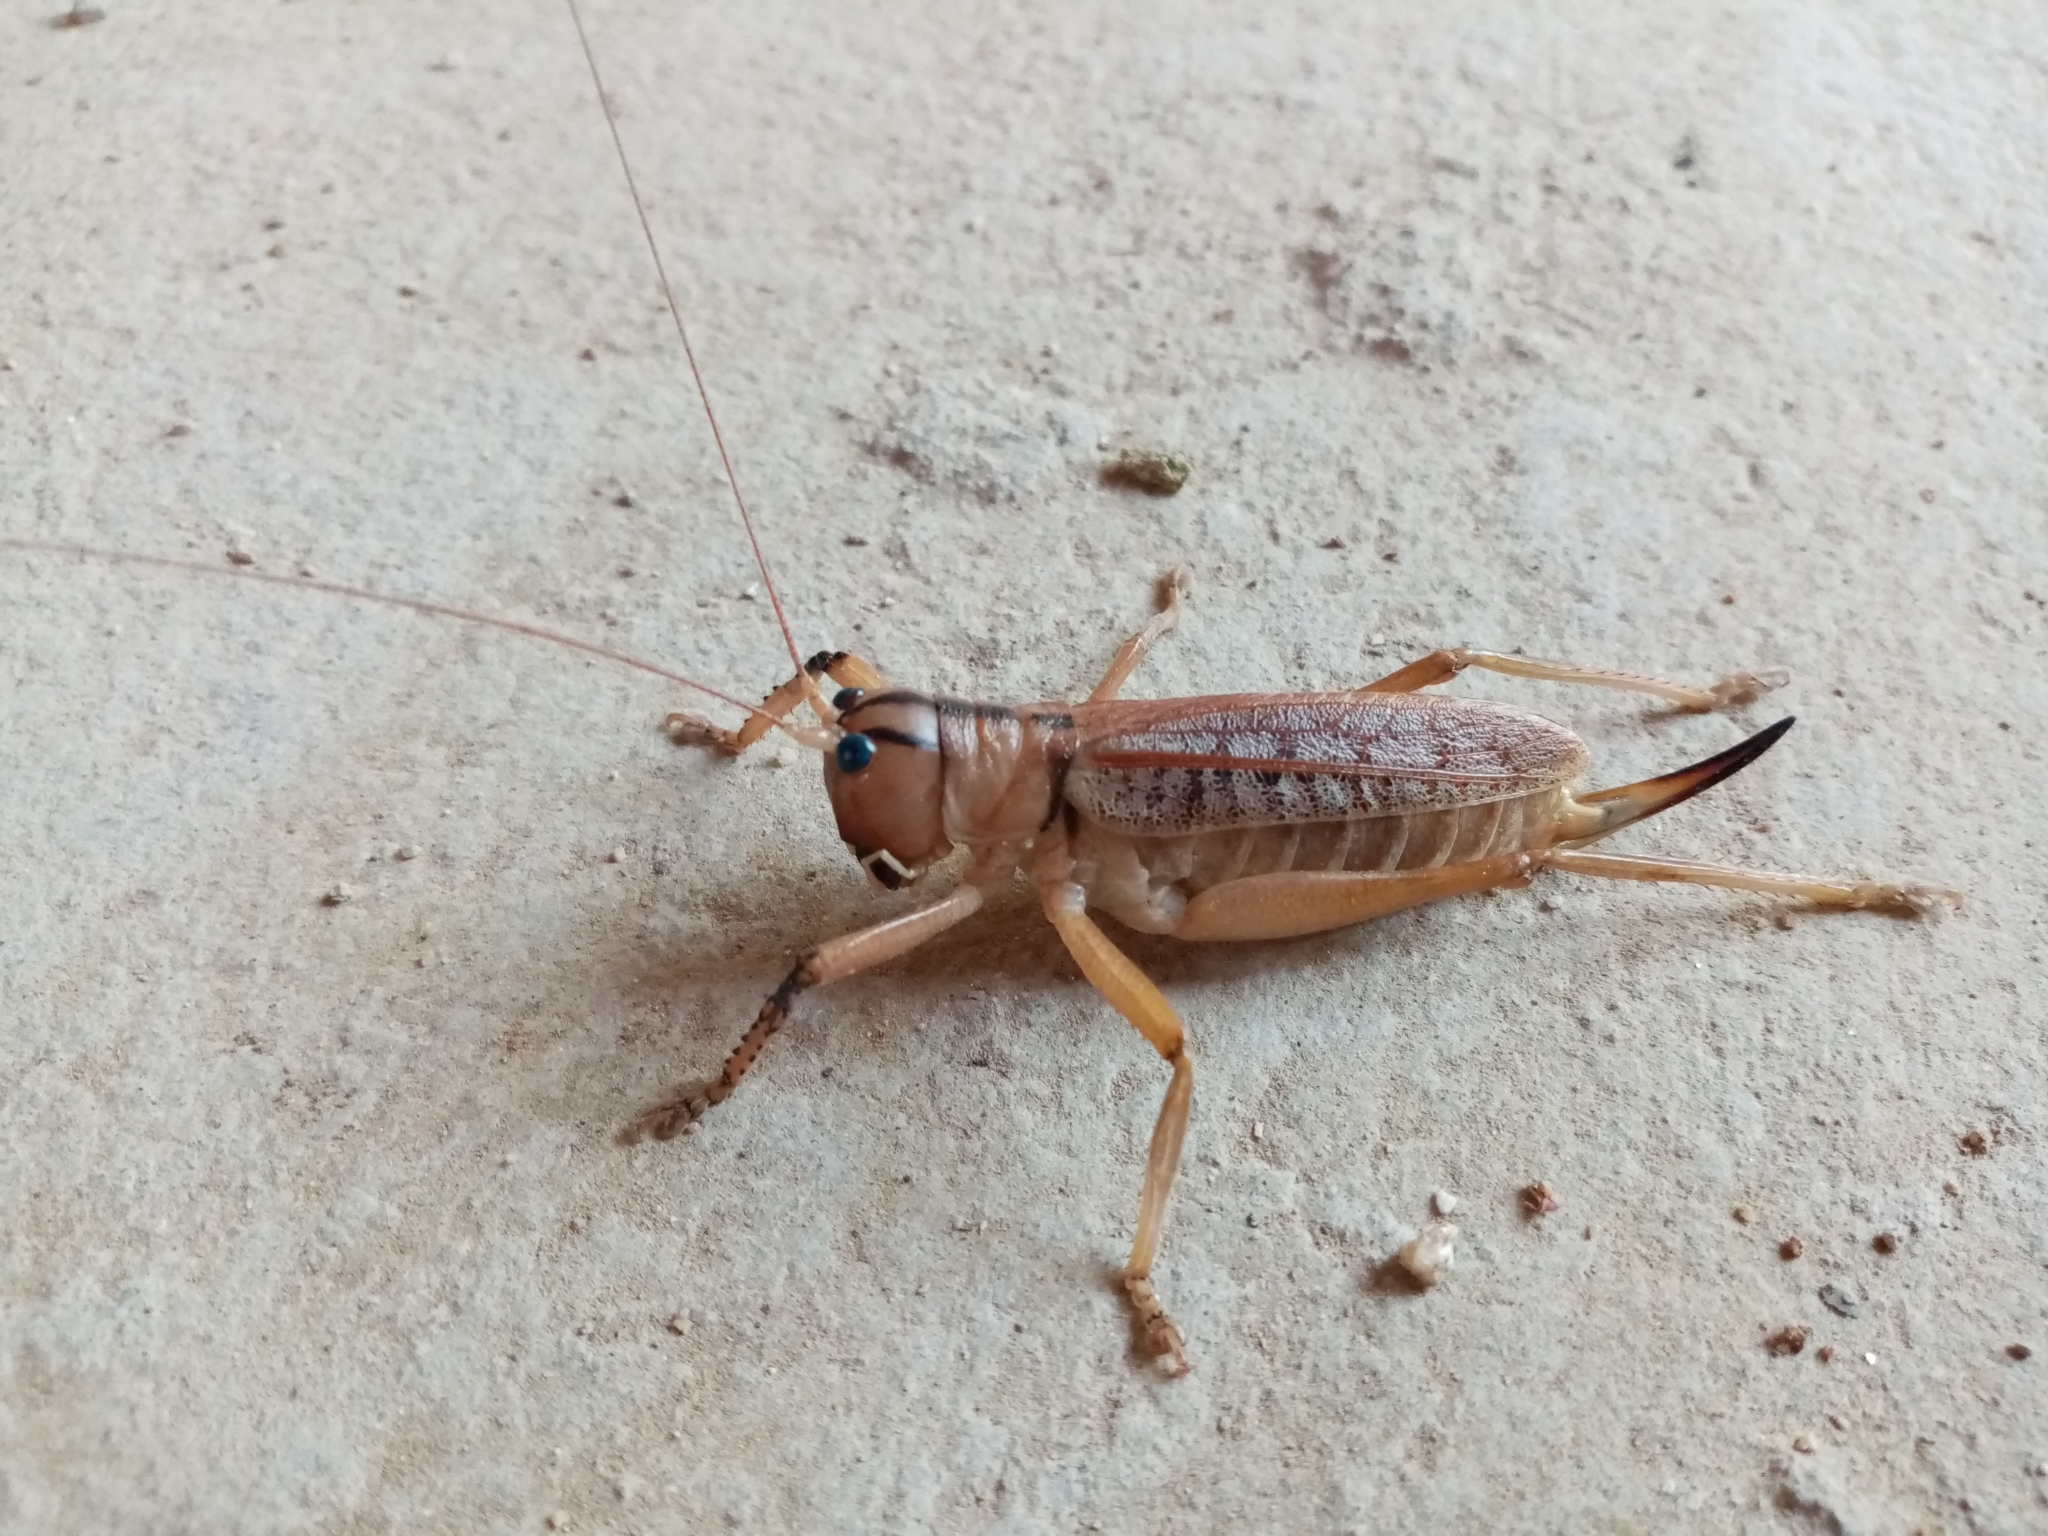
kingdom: Animalia
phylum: Arthropoda
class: Insecta
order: Orthoptera
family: Tettigoniidae
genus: Nastonotus
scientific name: Nastonotus foreli
